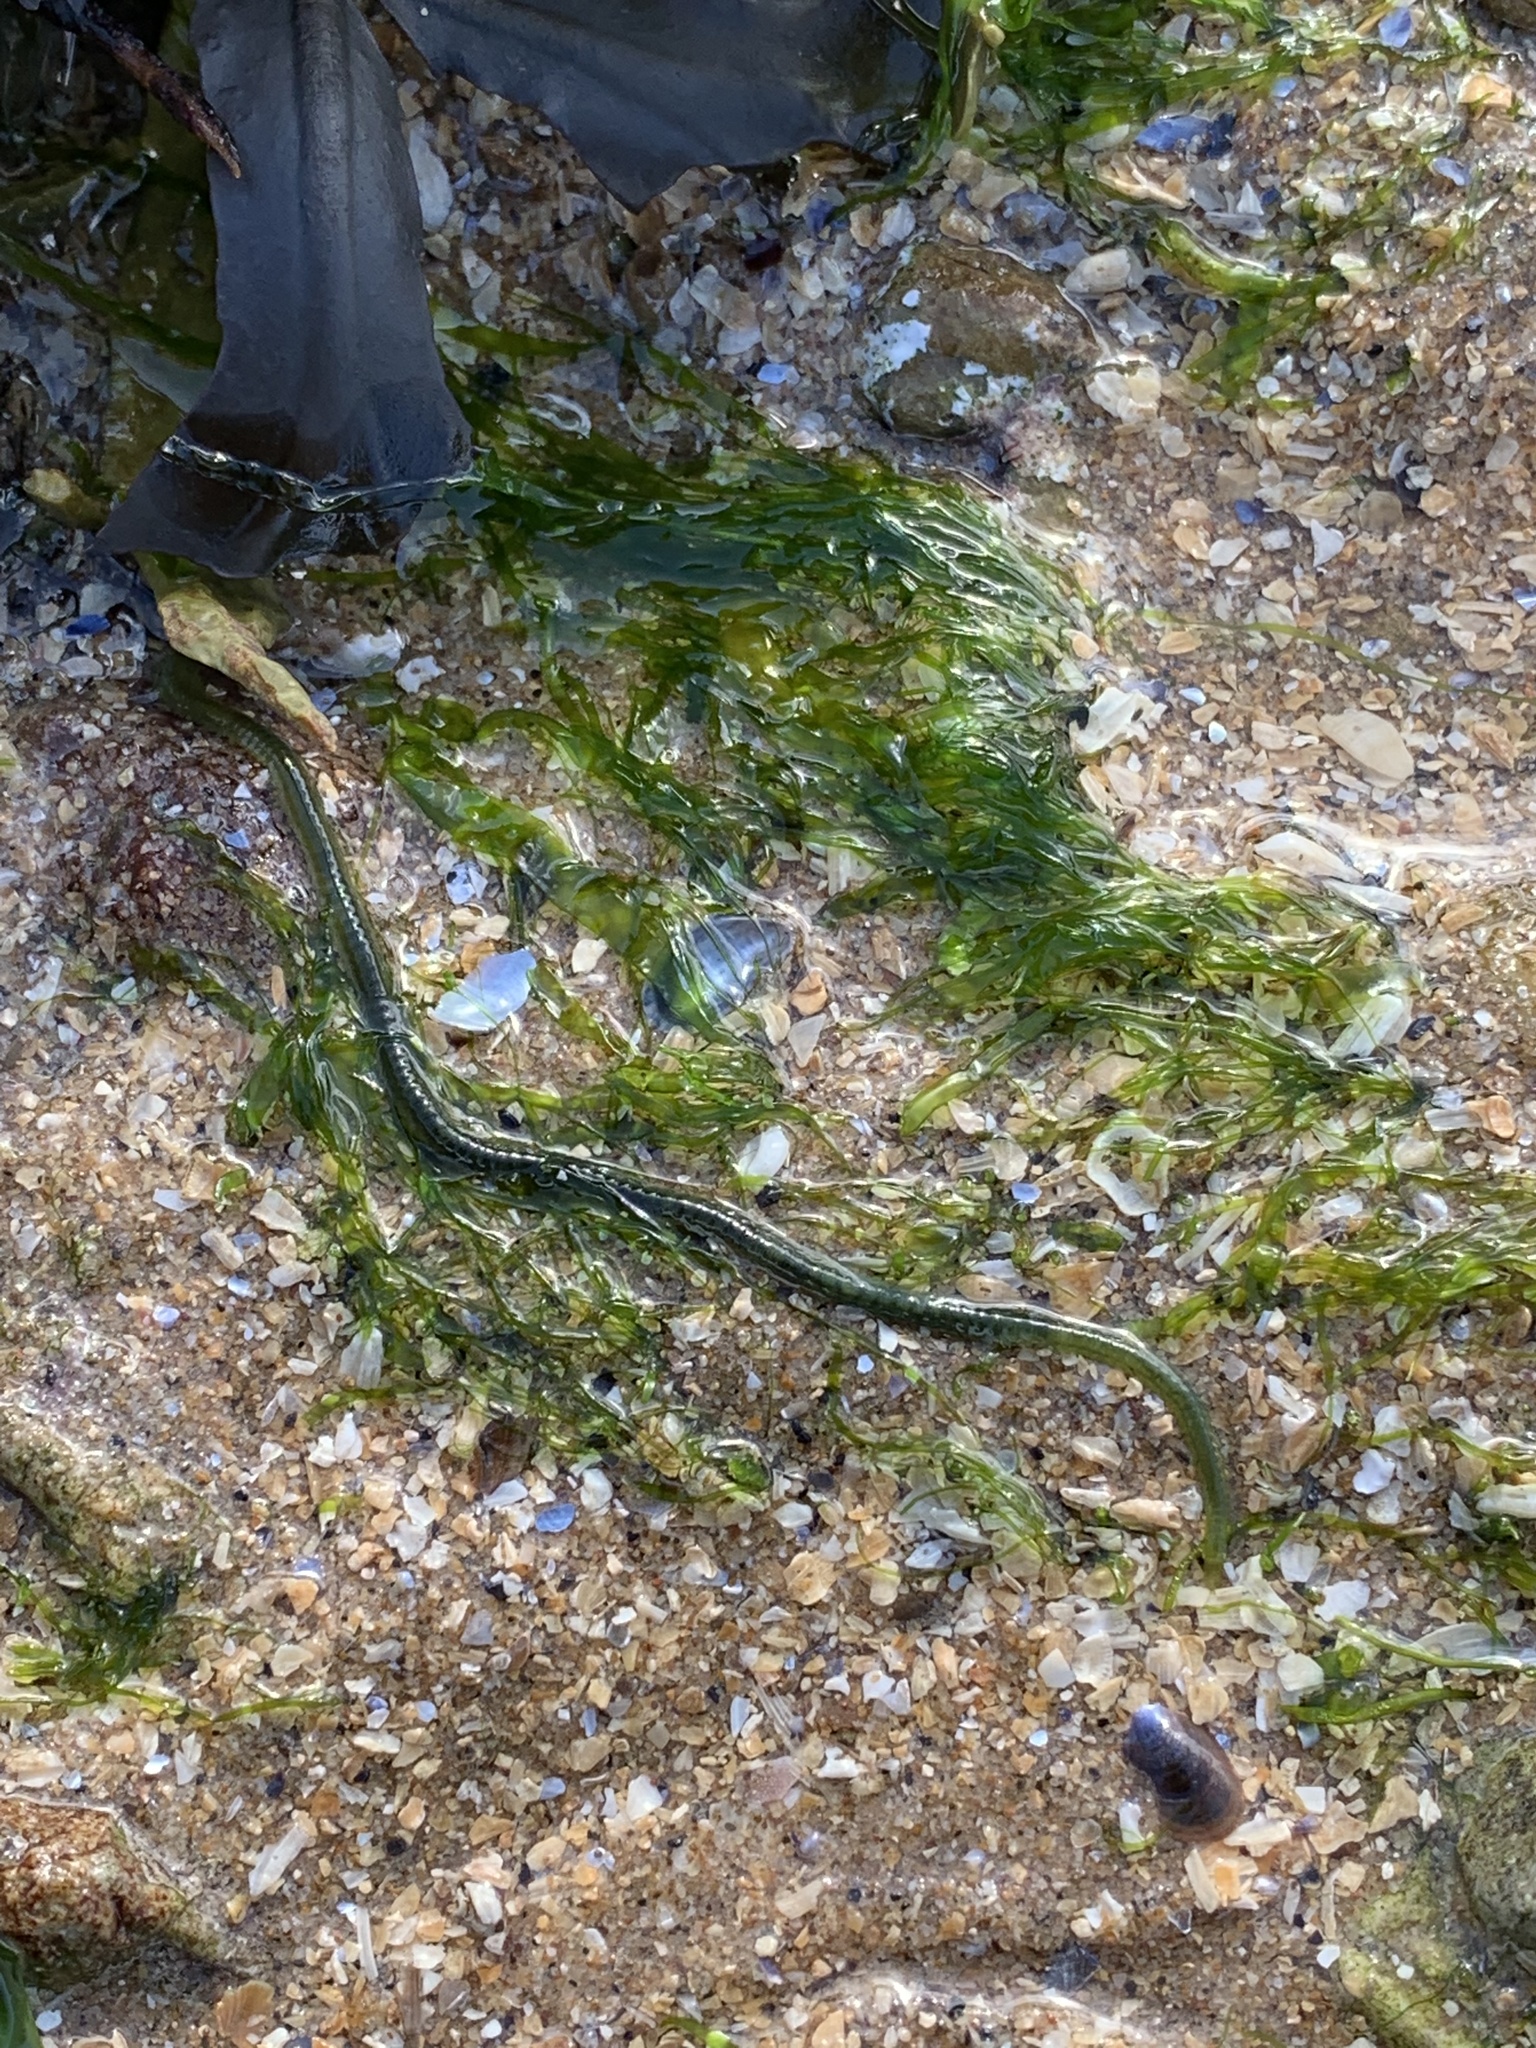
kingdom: Animalia
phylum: Annelida
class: Polychaeta
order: Phyllodocida
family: Phyllodocidae
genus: Eulalia
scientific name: Eulalia clavigera
